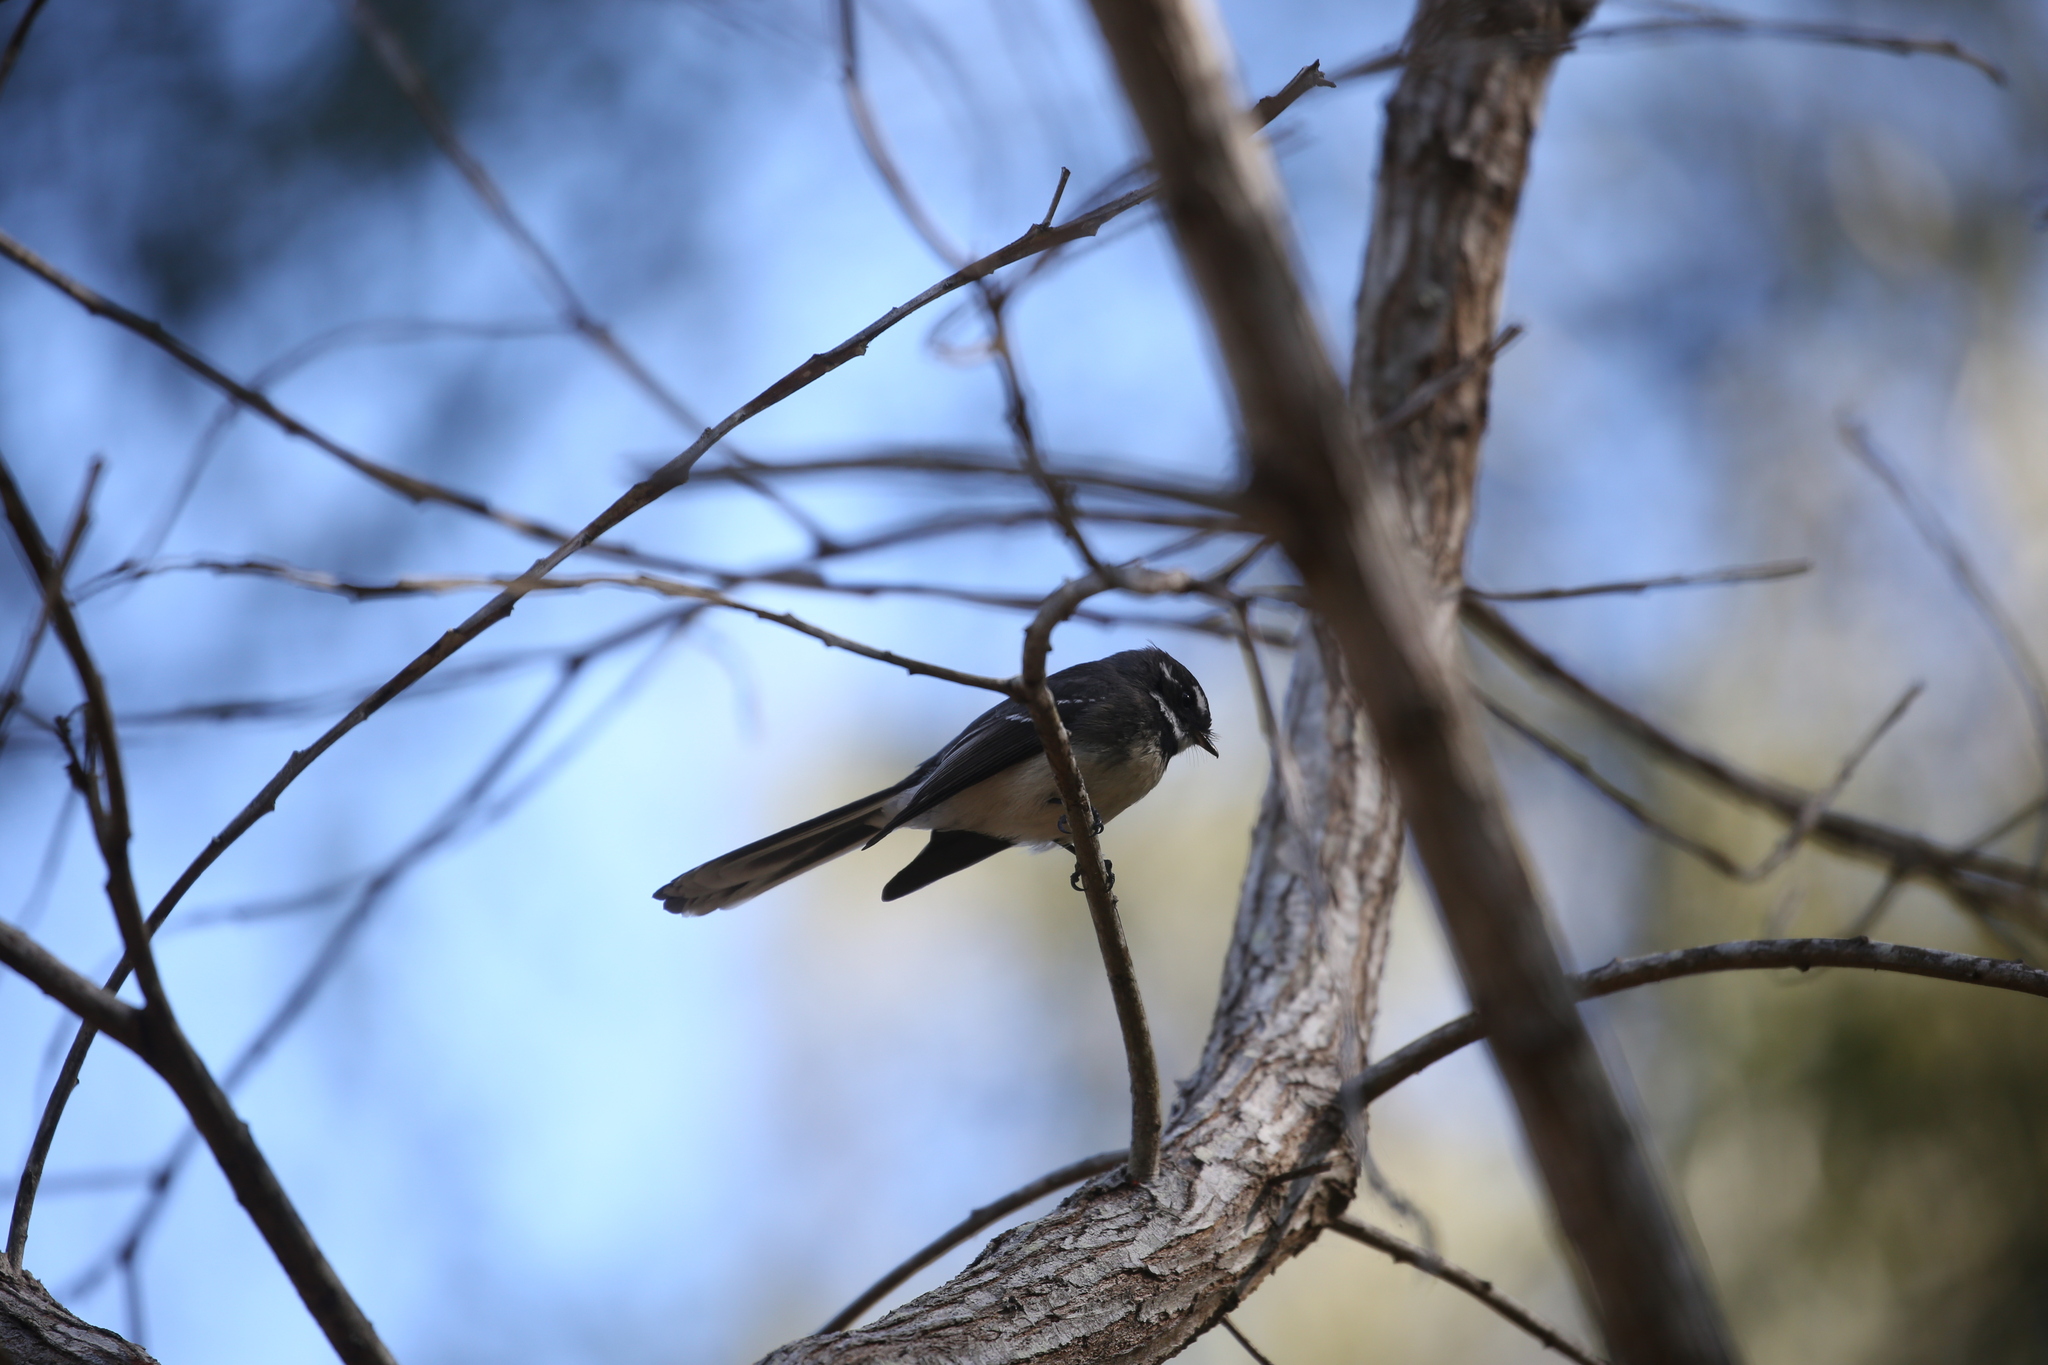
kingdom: Animalia
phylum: Chordata
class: Aves
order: Passeriformes
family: Rhipiduridae
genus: Rhipidura
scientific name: Rhipidura albiscapa
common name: Grey fantail
